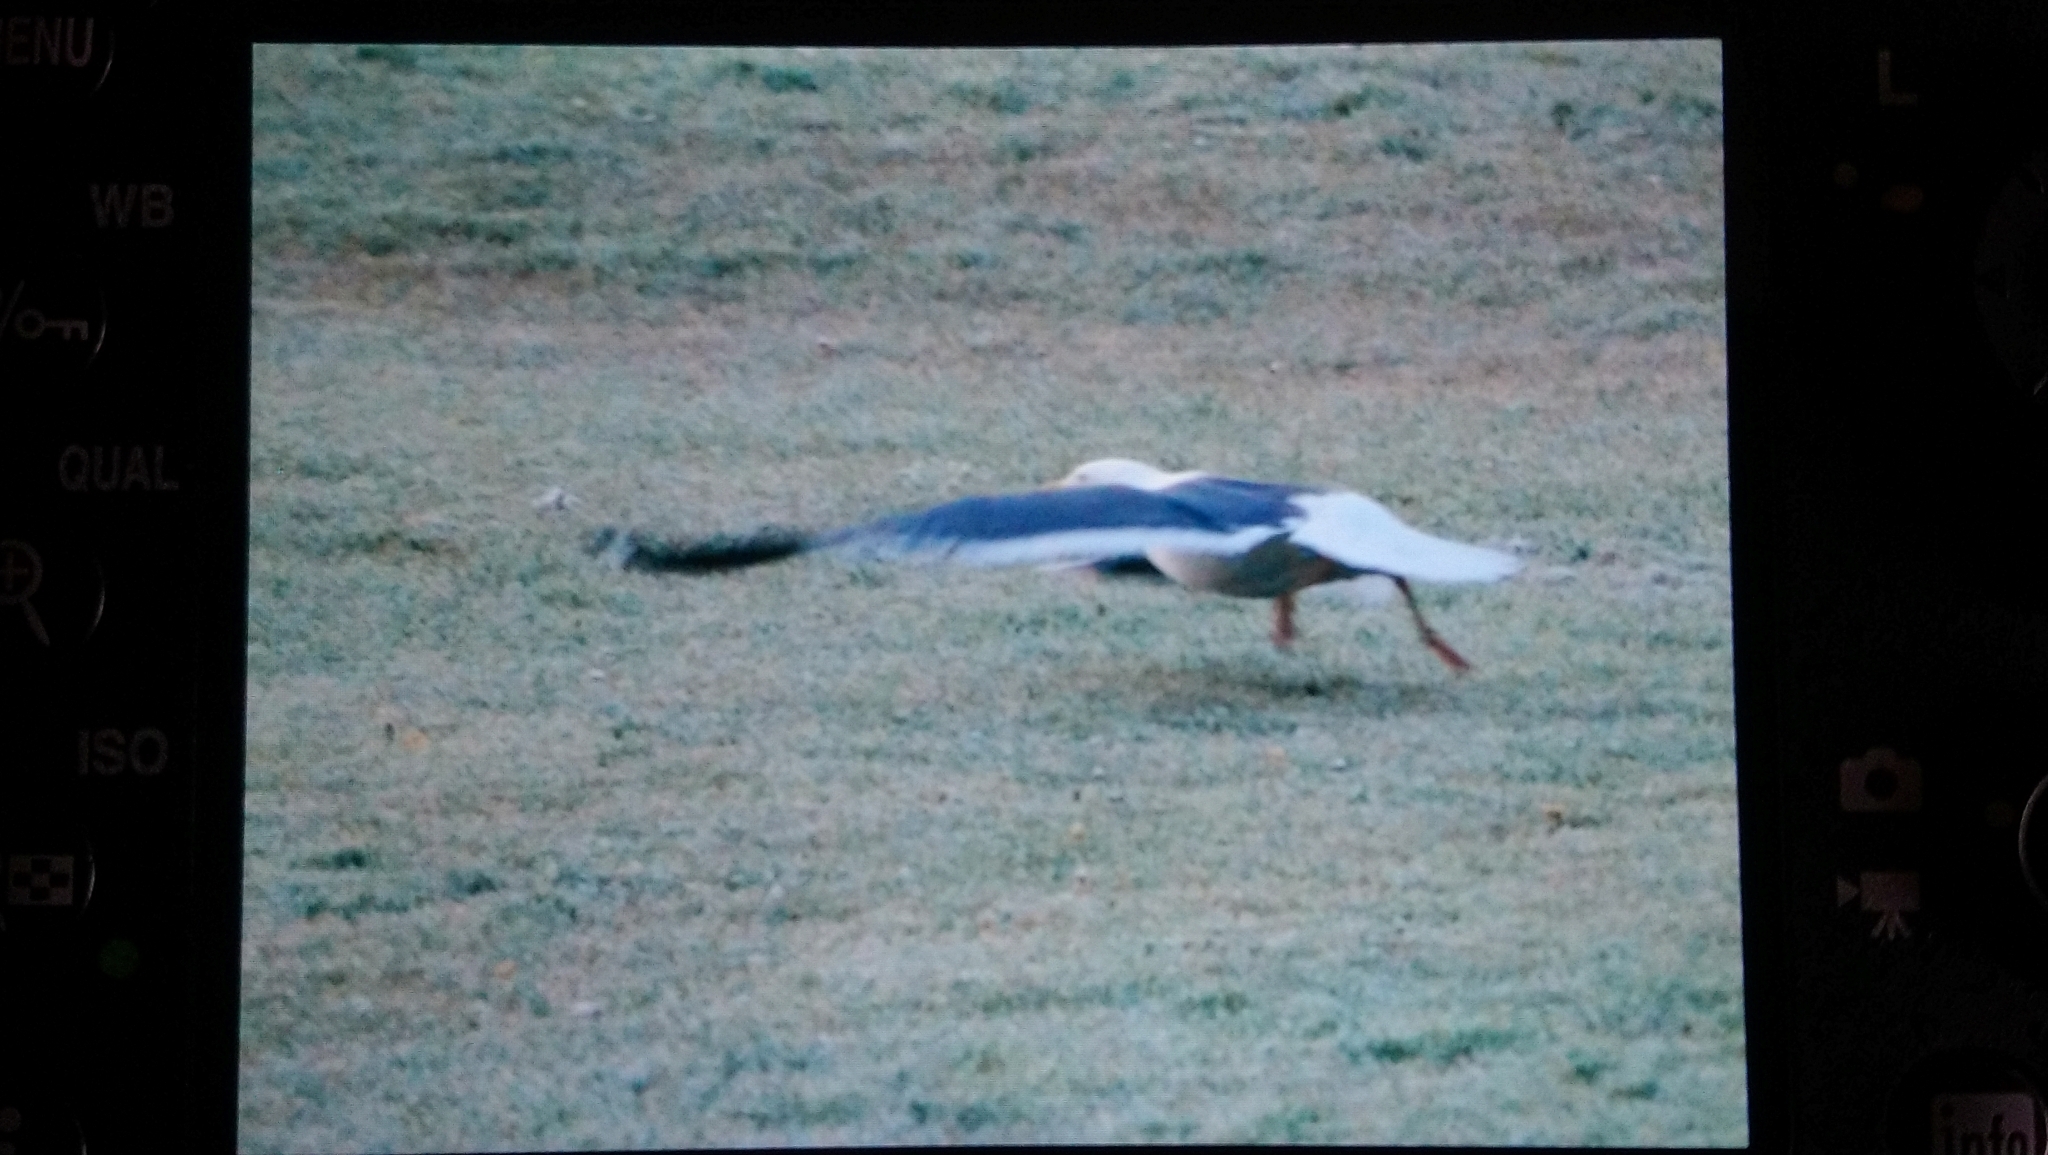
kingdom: Animalia
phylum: Chordata
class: Aves
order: Charadriiformes
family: Laridae
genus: Larus
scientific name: Larus fuscus
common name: Lesser black-backed gull
